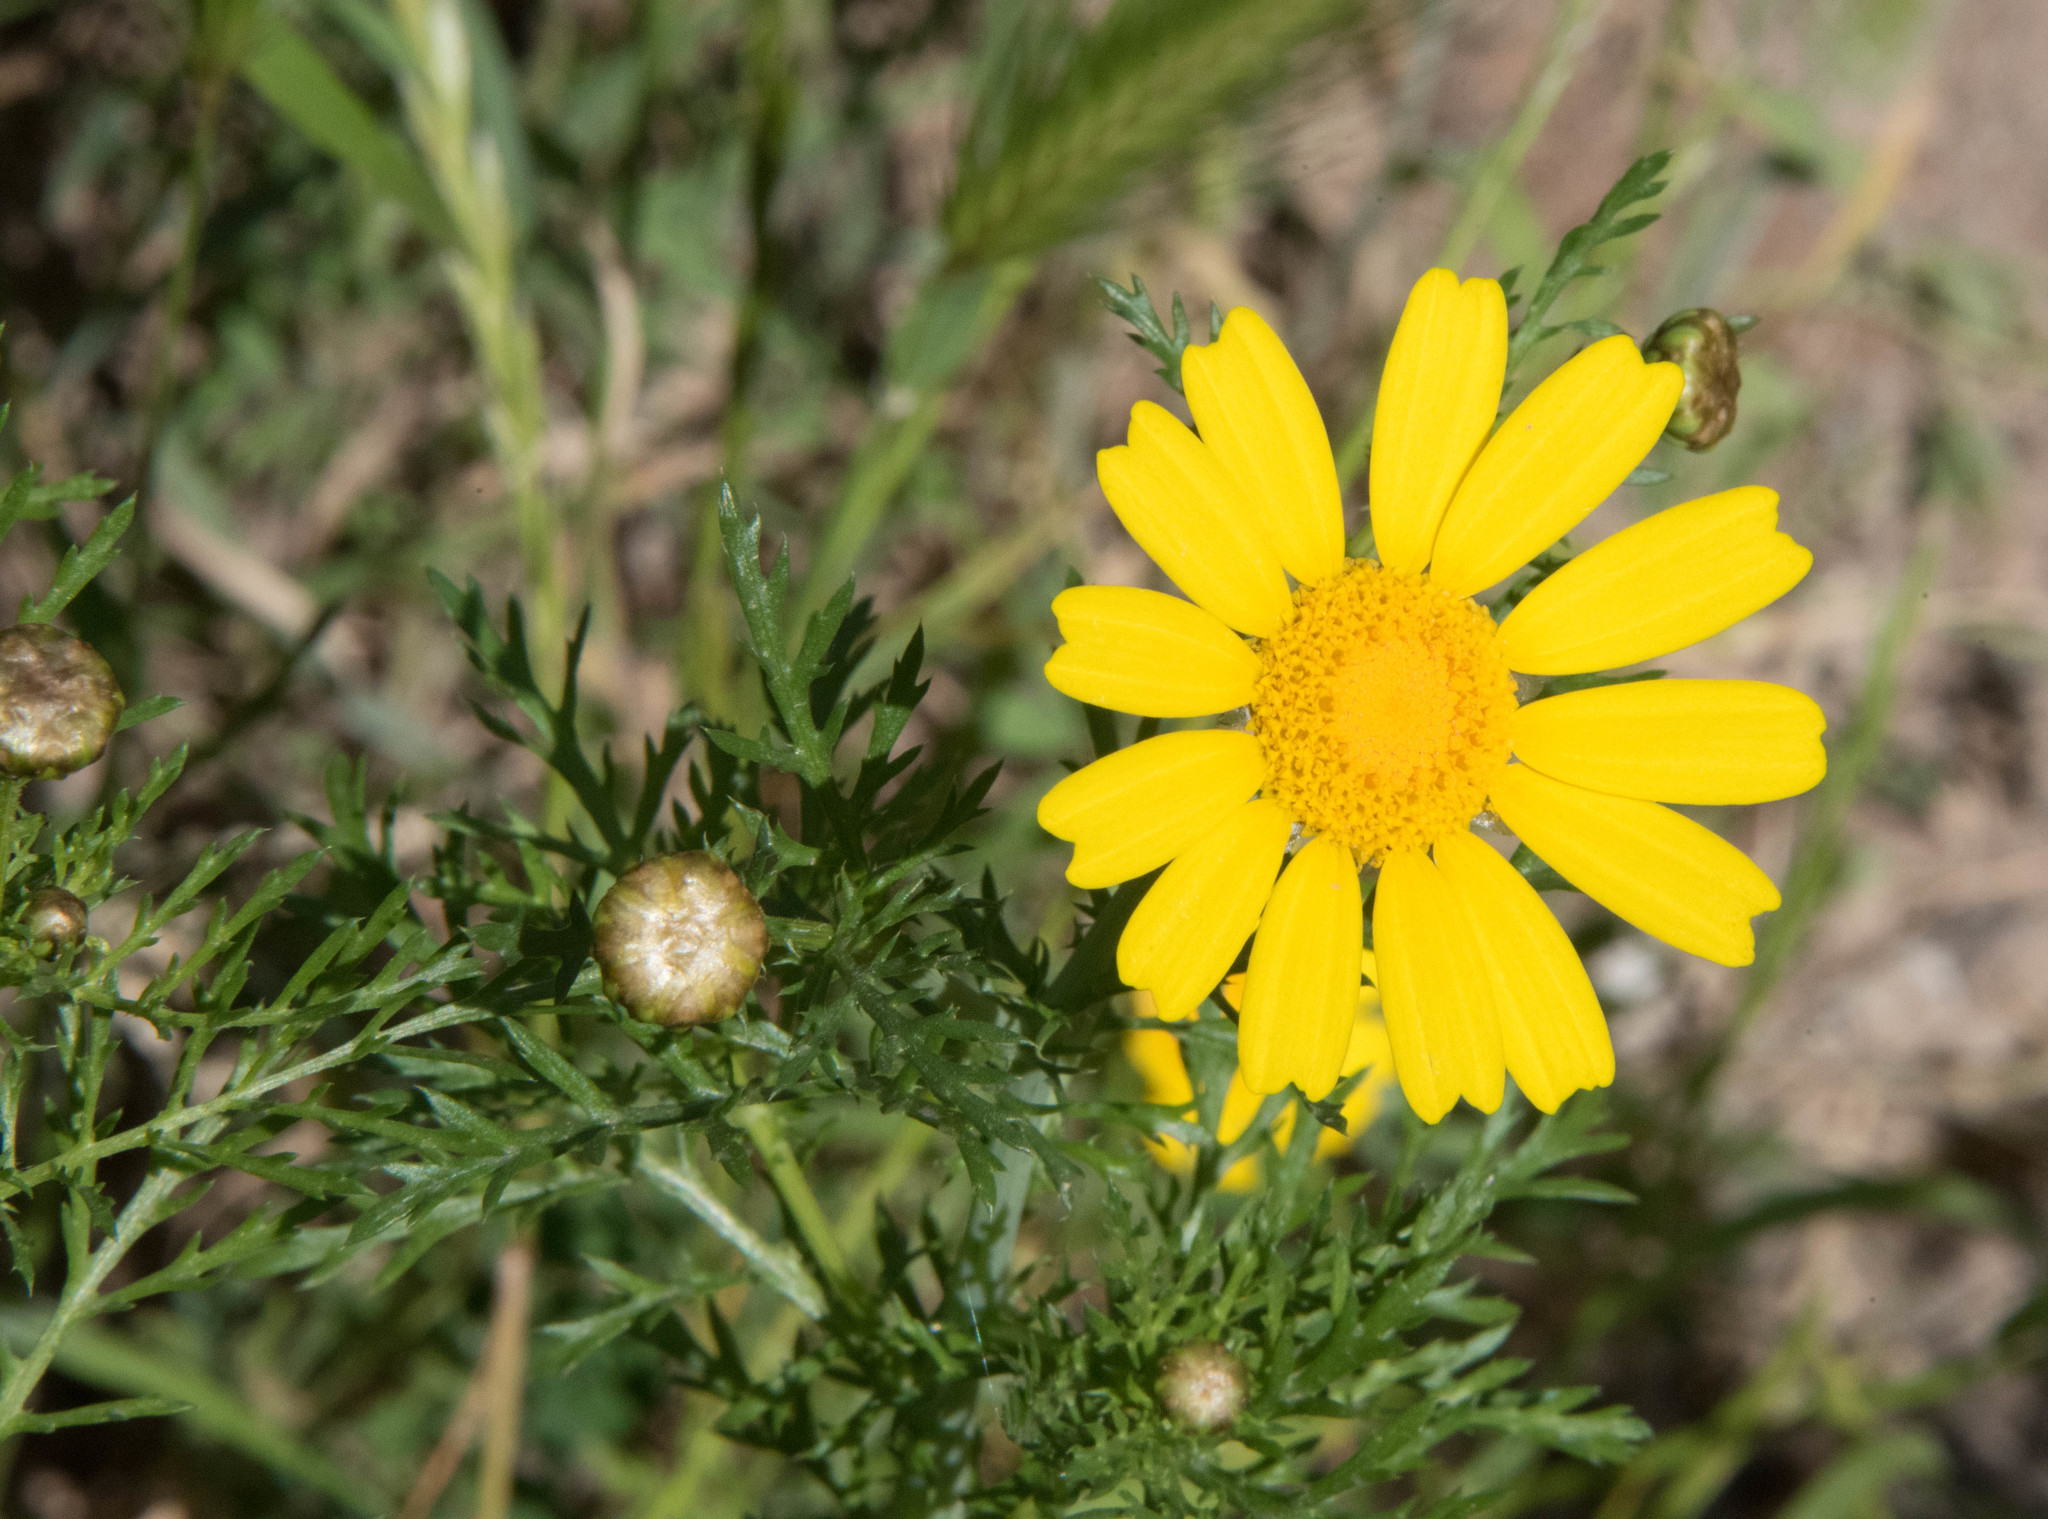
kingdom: Plantae
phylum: Tracheophyta
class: Magnoliopsida
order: Asterales
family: Asteraceae
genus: Glebionis
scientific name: Glebionis coronaria
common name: Crowndaisy
